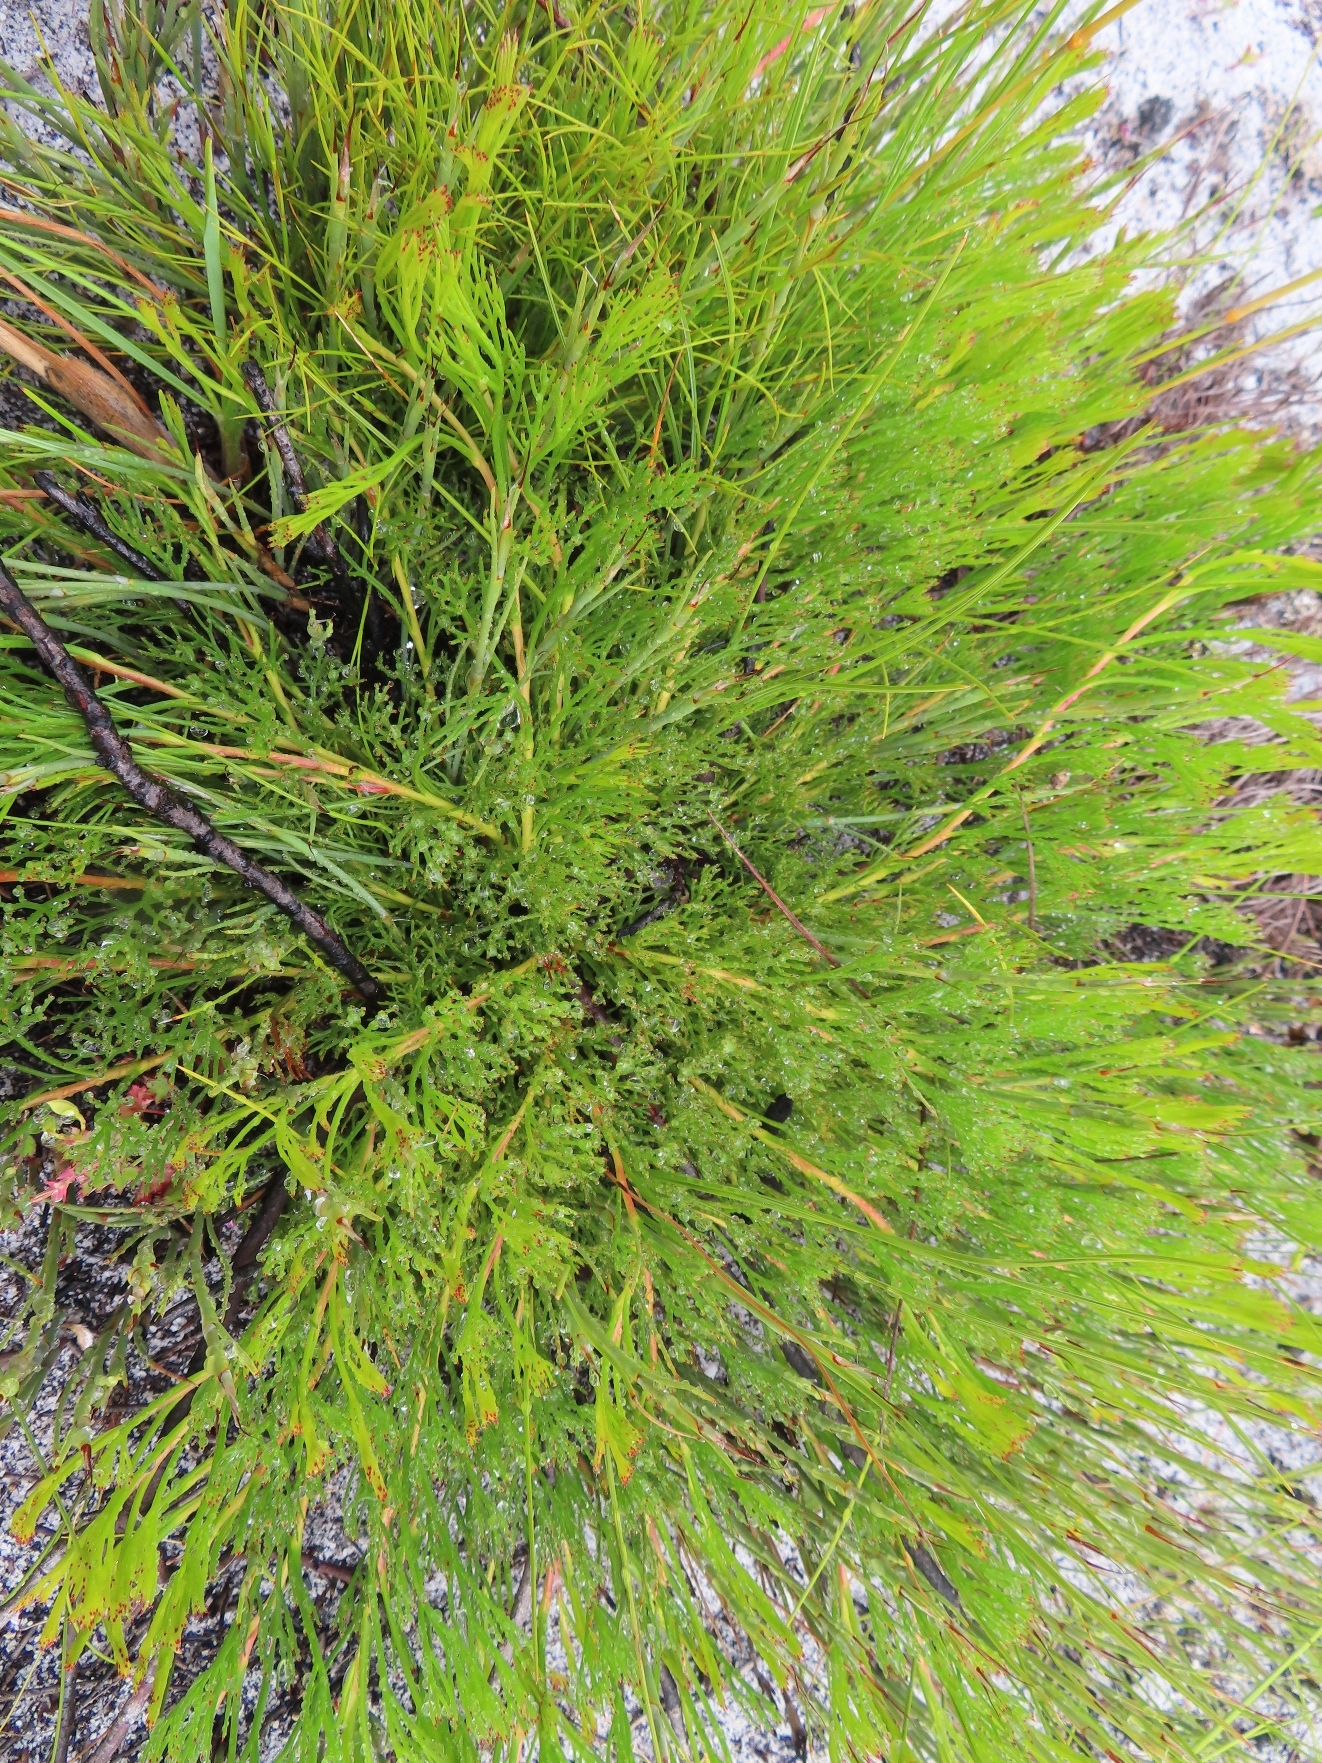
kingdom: Plantae
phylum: Tracheophyta
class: Magnoliopsida
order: Proteales
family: Proteaceae
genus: Serruria
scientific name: Serruria rubricaulis
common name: Red-stem spiderhead
